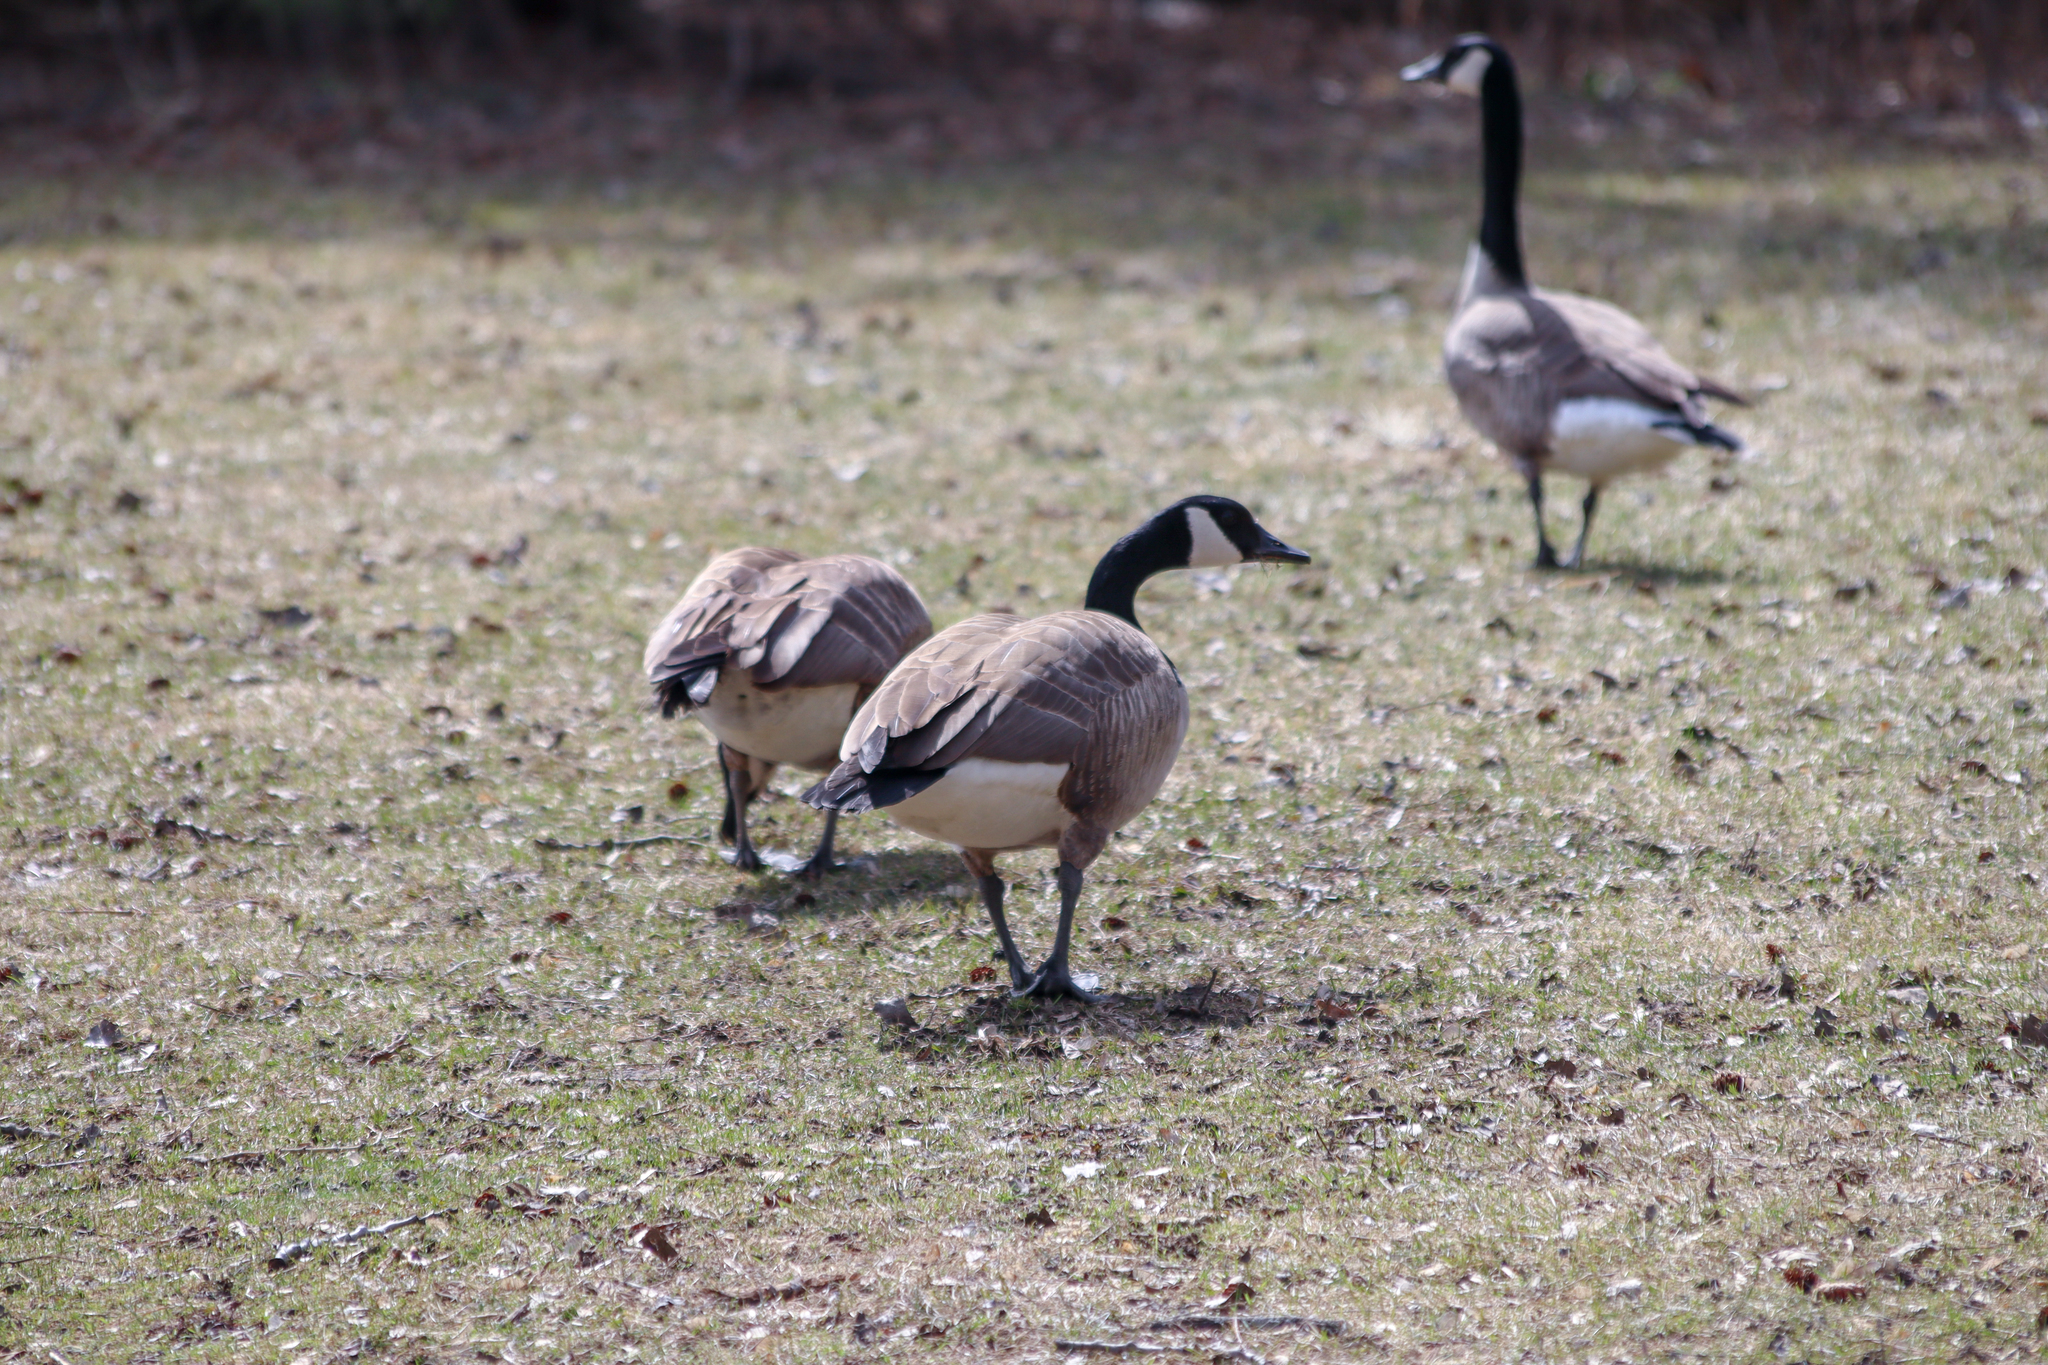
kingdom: Animalia
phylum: Chordata
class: Aves
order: Anseriformes
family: Anatidae
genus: Branta
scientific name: Branta canadensis
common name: Canada goose
